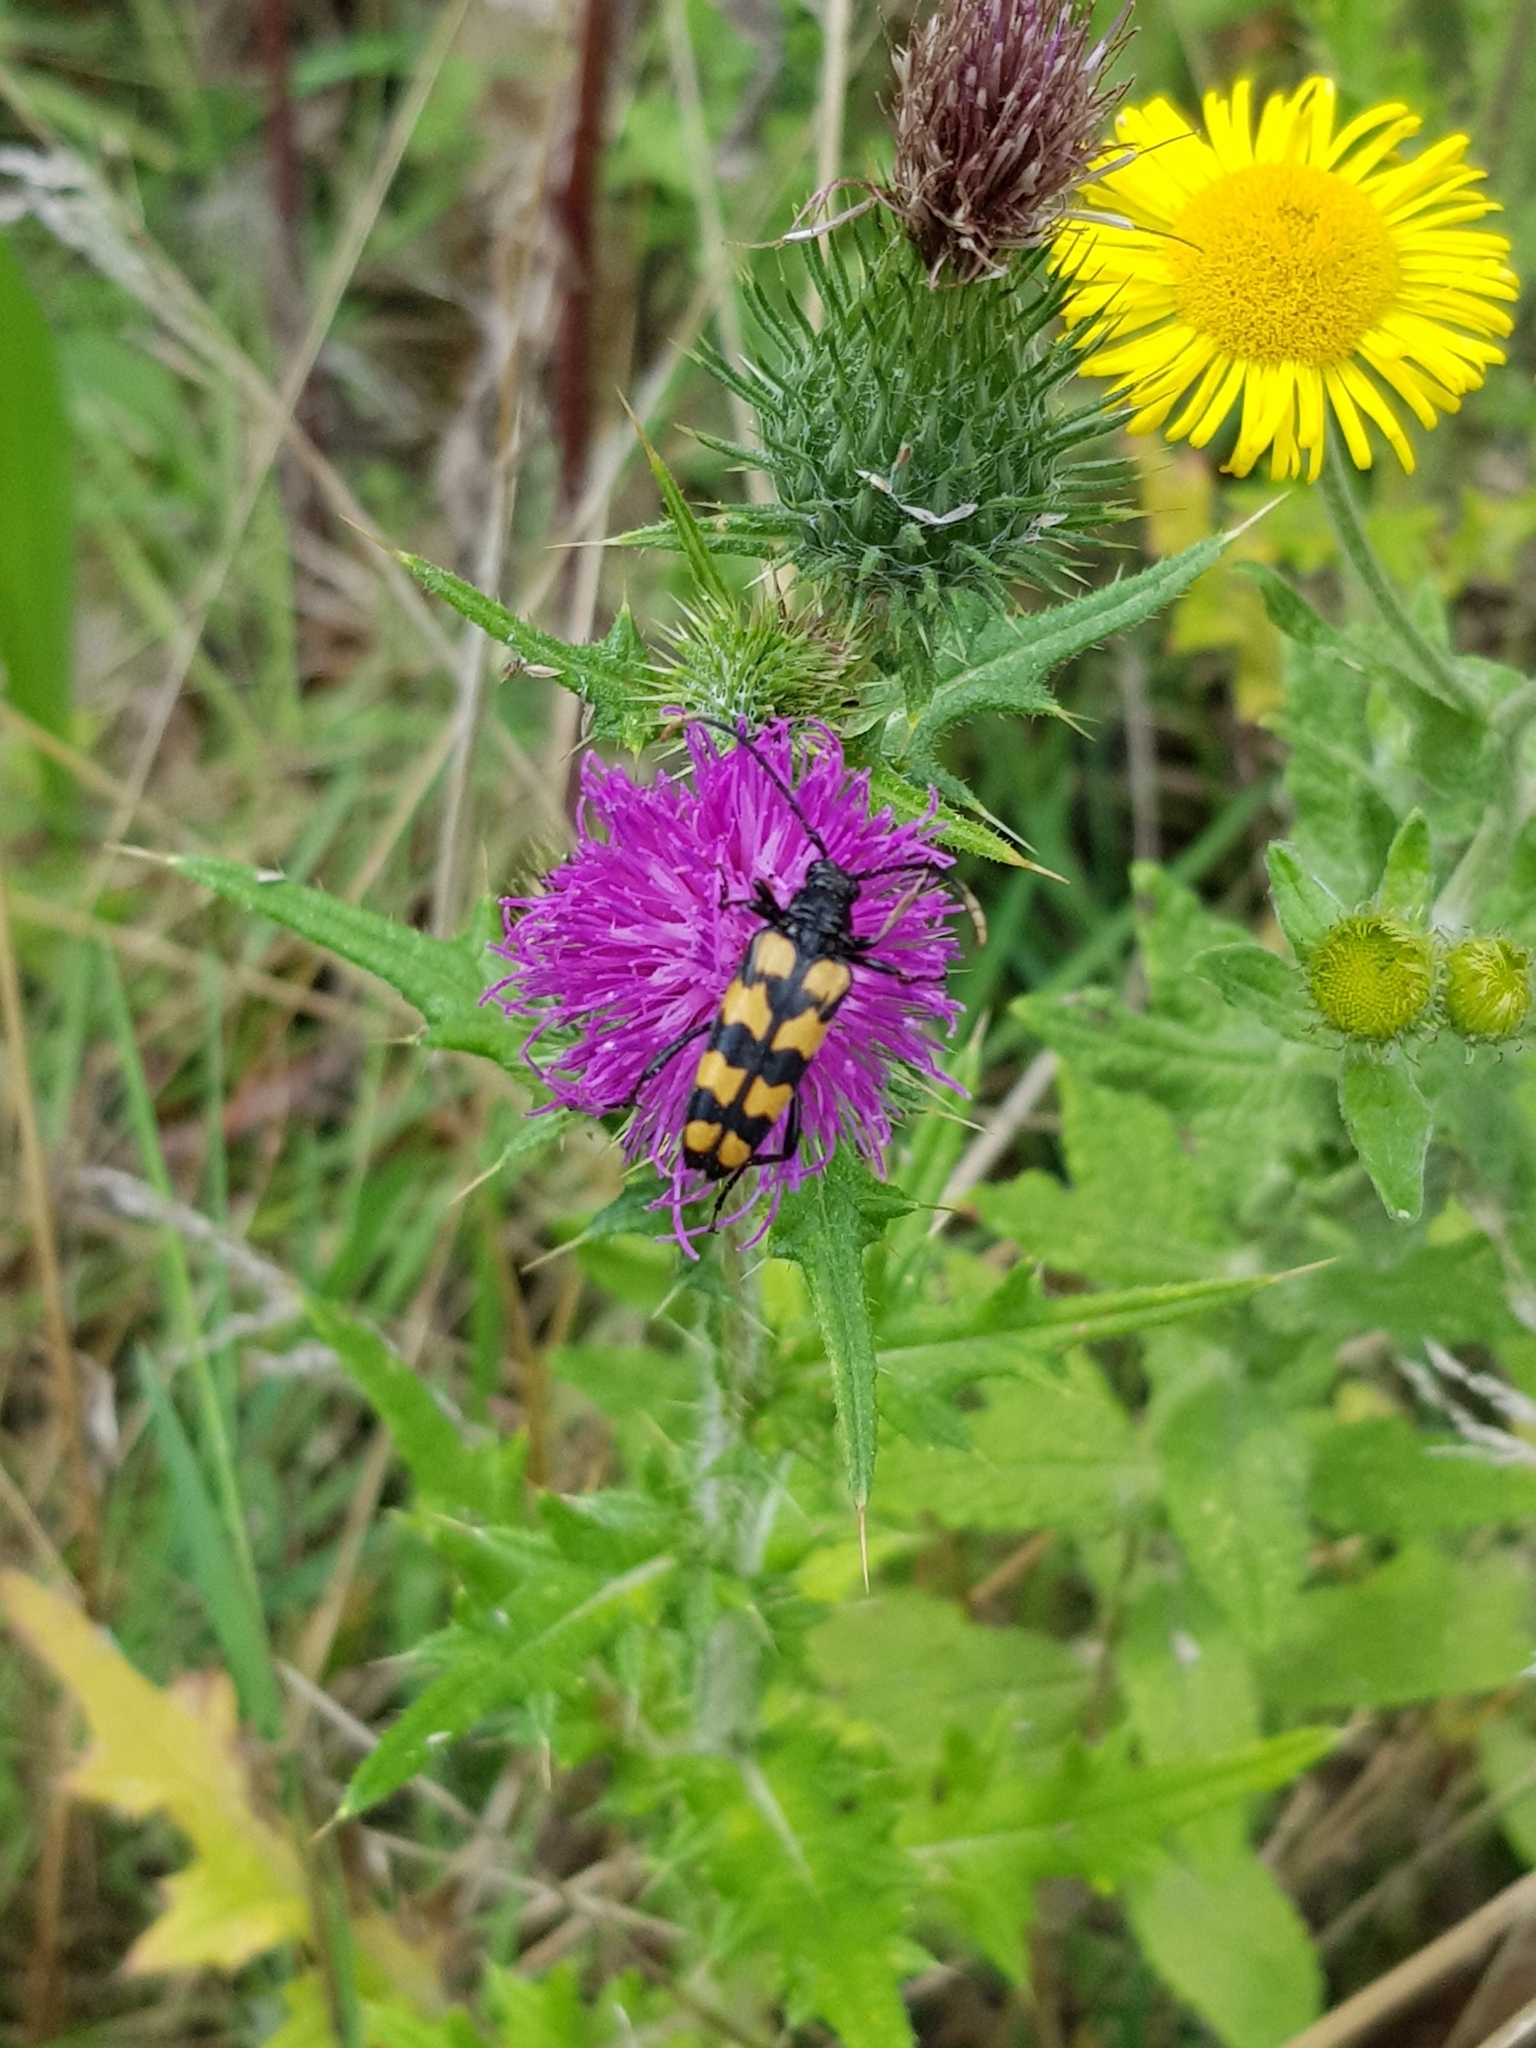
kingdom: Animalia
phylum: Arthropoda
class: Insecta
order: Coleoptera
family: Cerambycidae
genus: Leptura
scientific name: Leptura quadrifasciata
